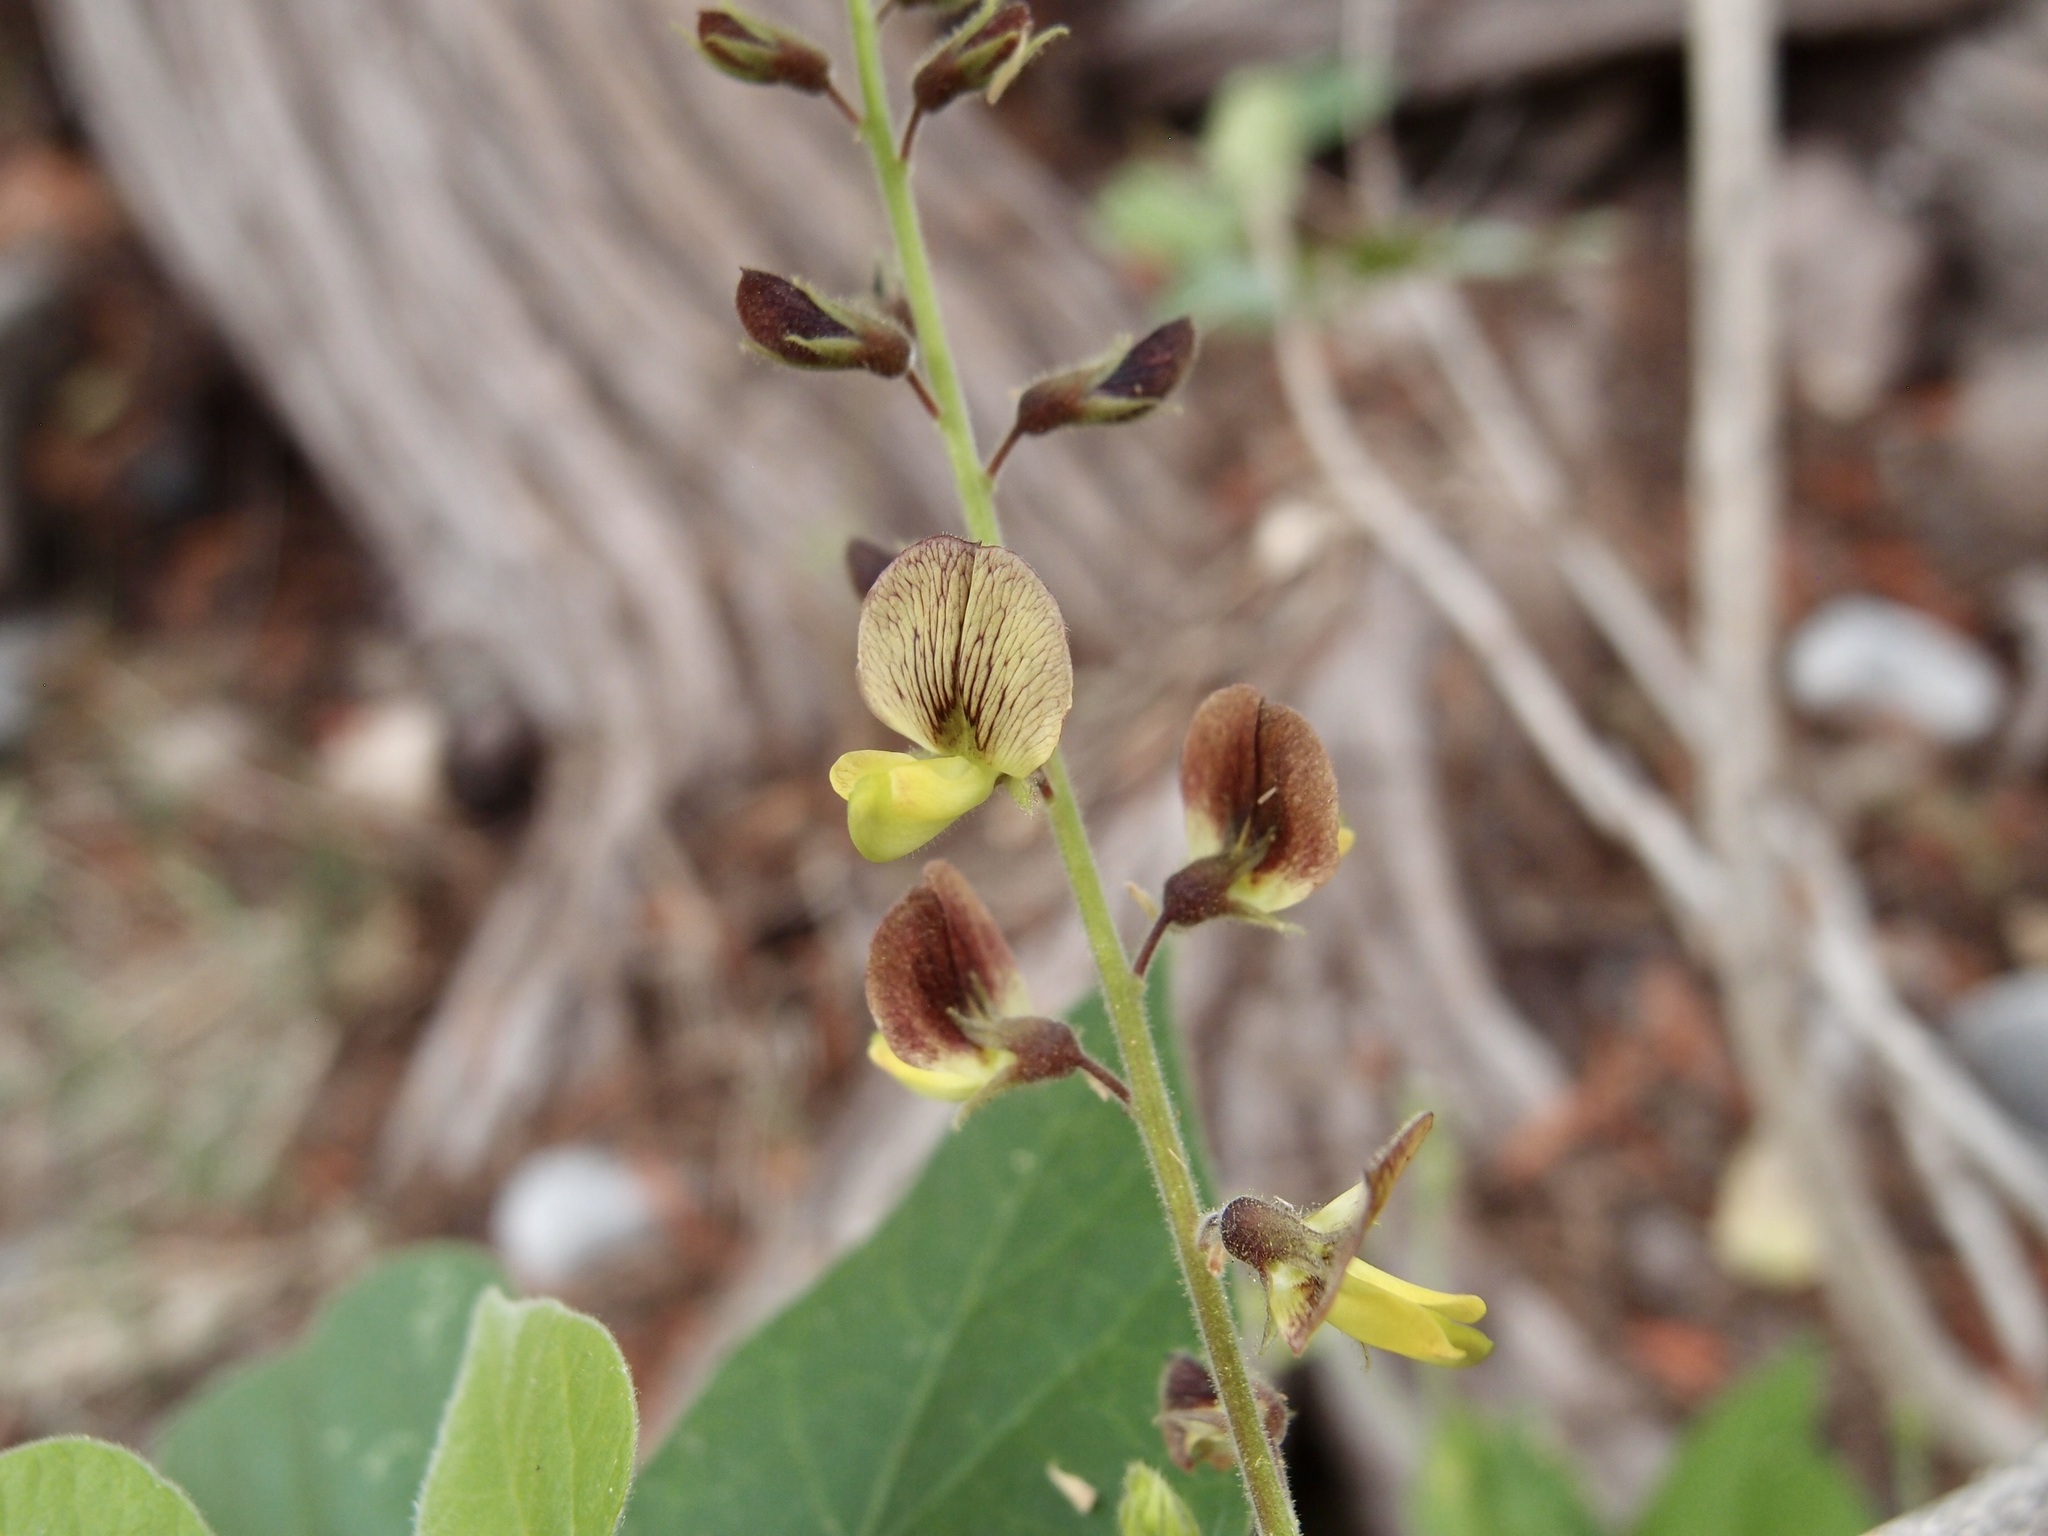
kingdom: Plantae
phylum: Tracheophyta
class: Magnoliopsida
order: Fabales
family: Fabaceae
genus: Rhynchosia
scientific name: Rhynchosia precatoria
